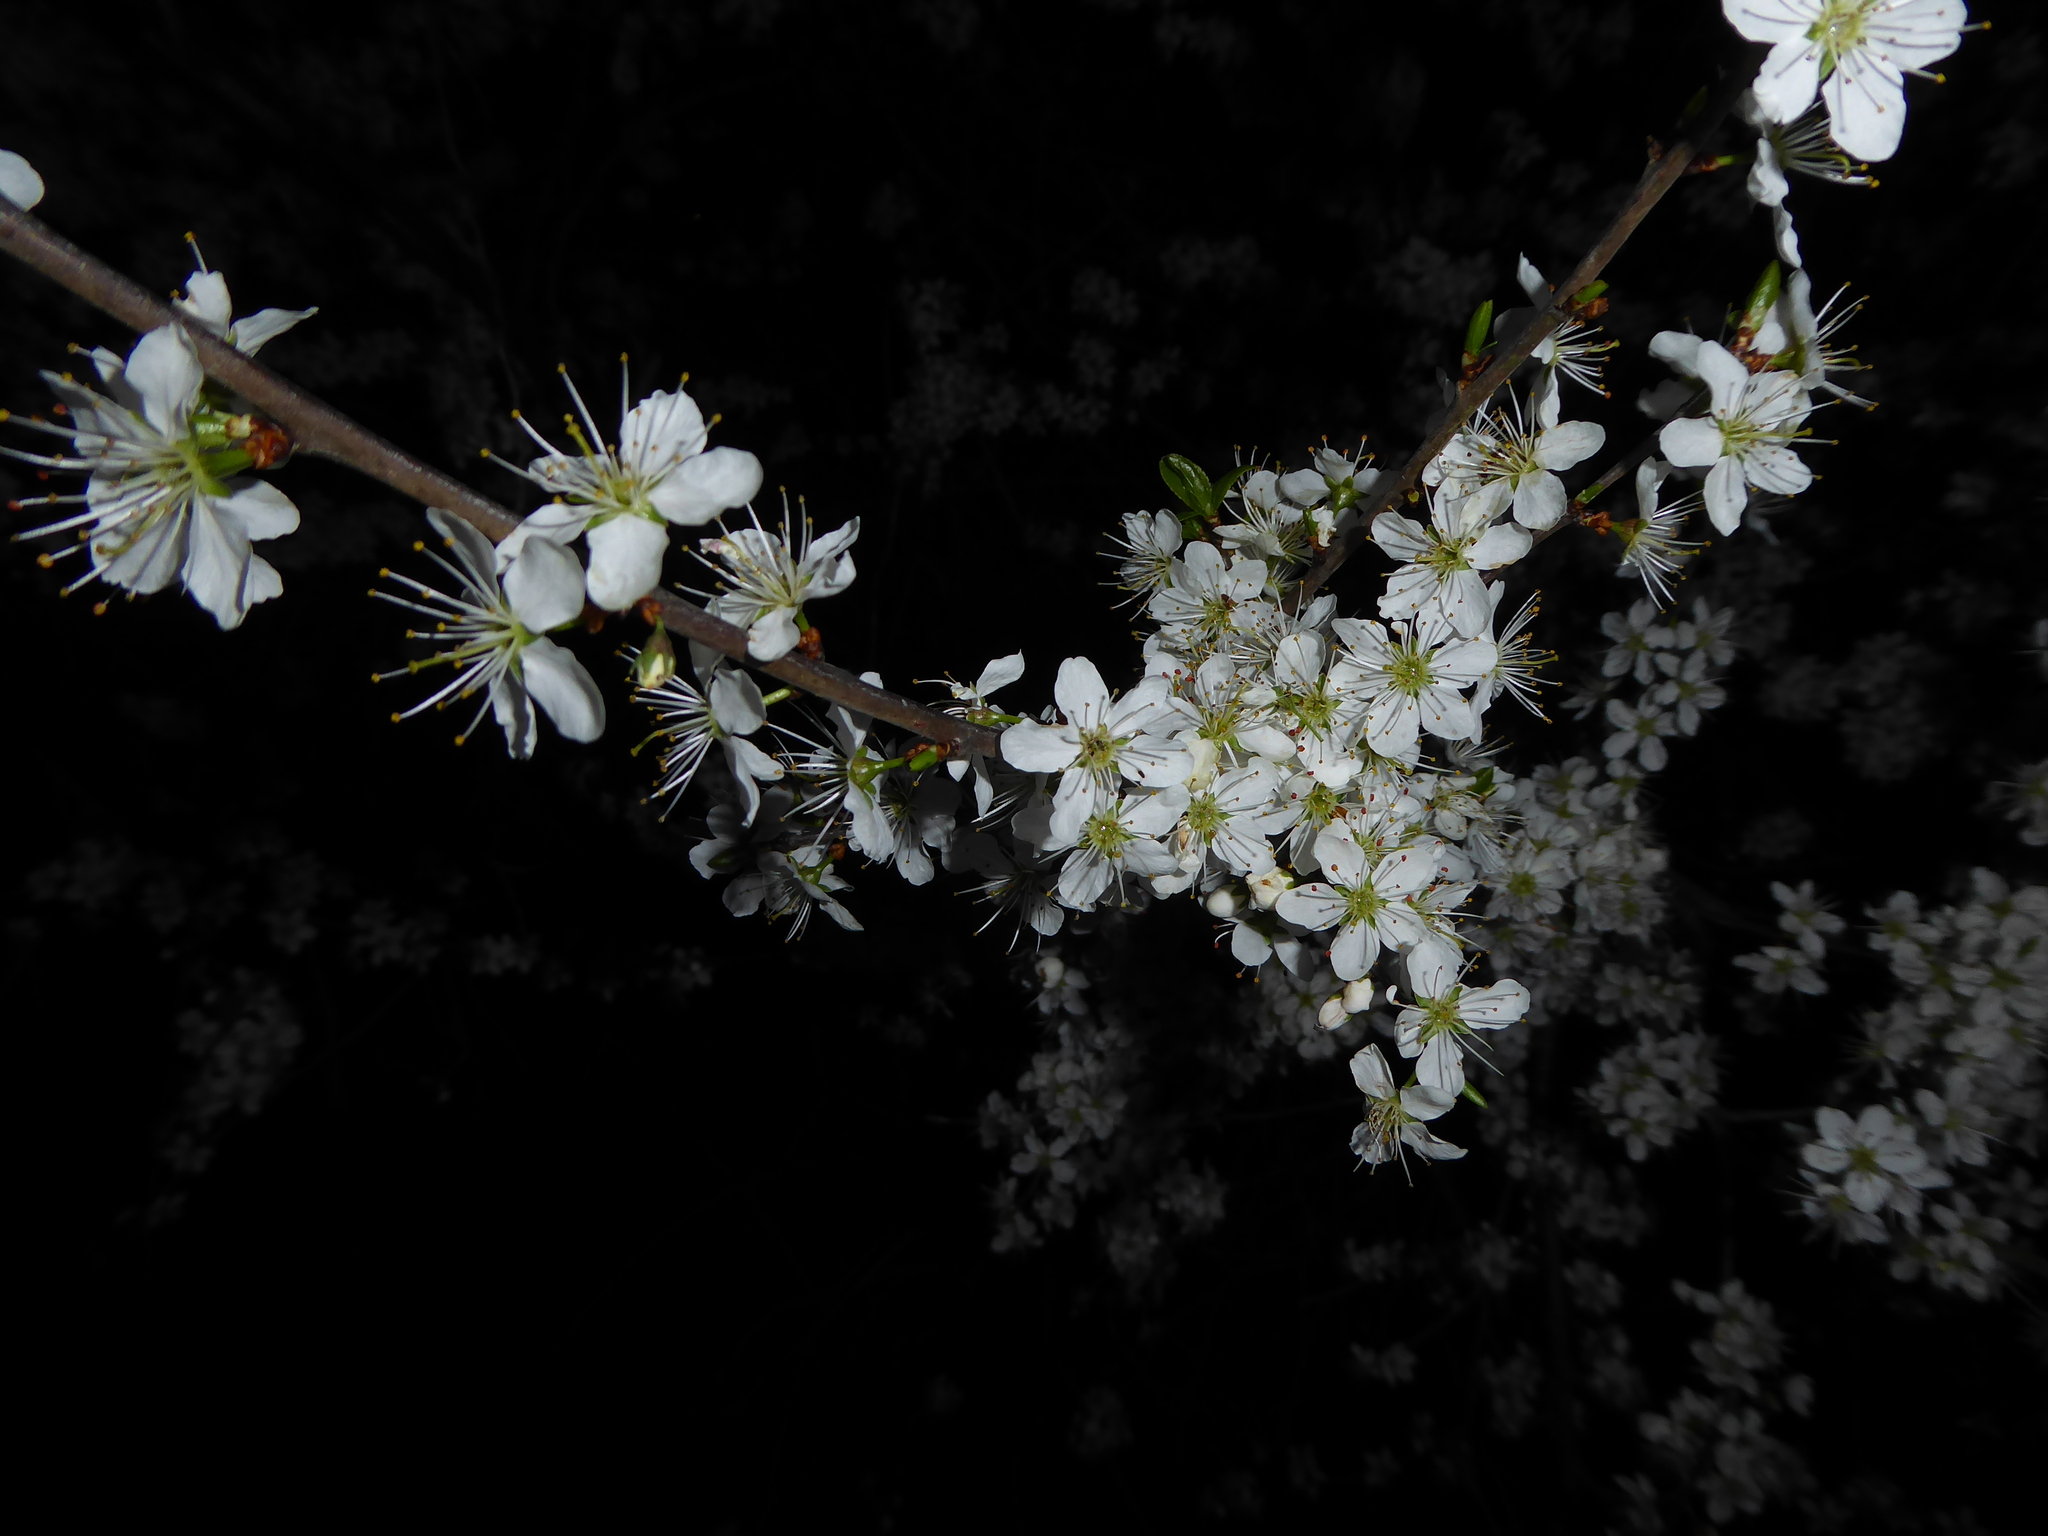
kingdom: Plantae
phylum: Tracheophyta
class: Magnoliopsida
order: Rosales
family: Rosaceae
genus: Prunus
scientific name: Prunus spinosa
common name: Blackthorn
